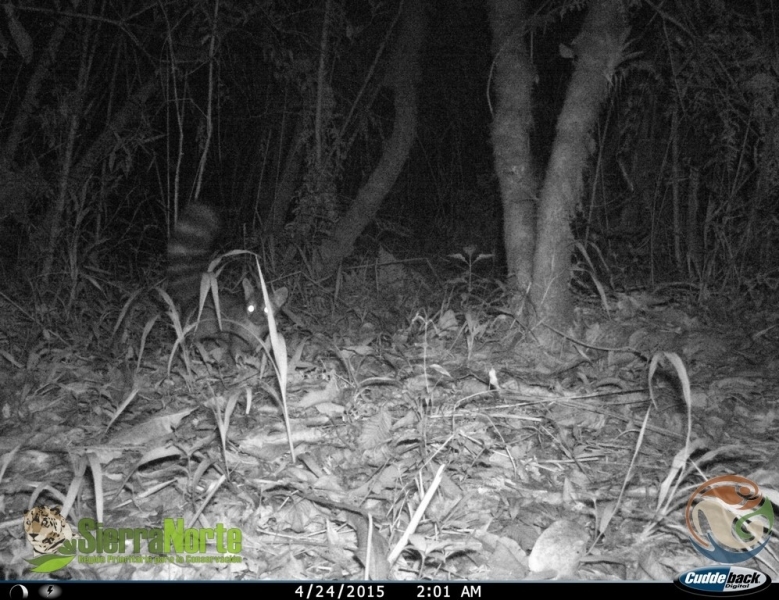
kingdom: Animalia
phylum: Chordata
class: Mammalia
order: Carnivora
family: Procyonidae
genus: Bassariscus
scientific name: Bassariscus astutus
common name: Ringtail
